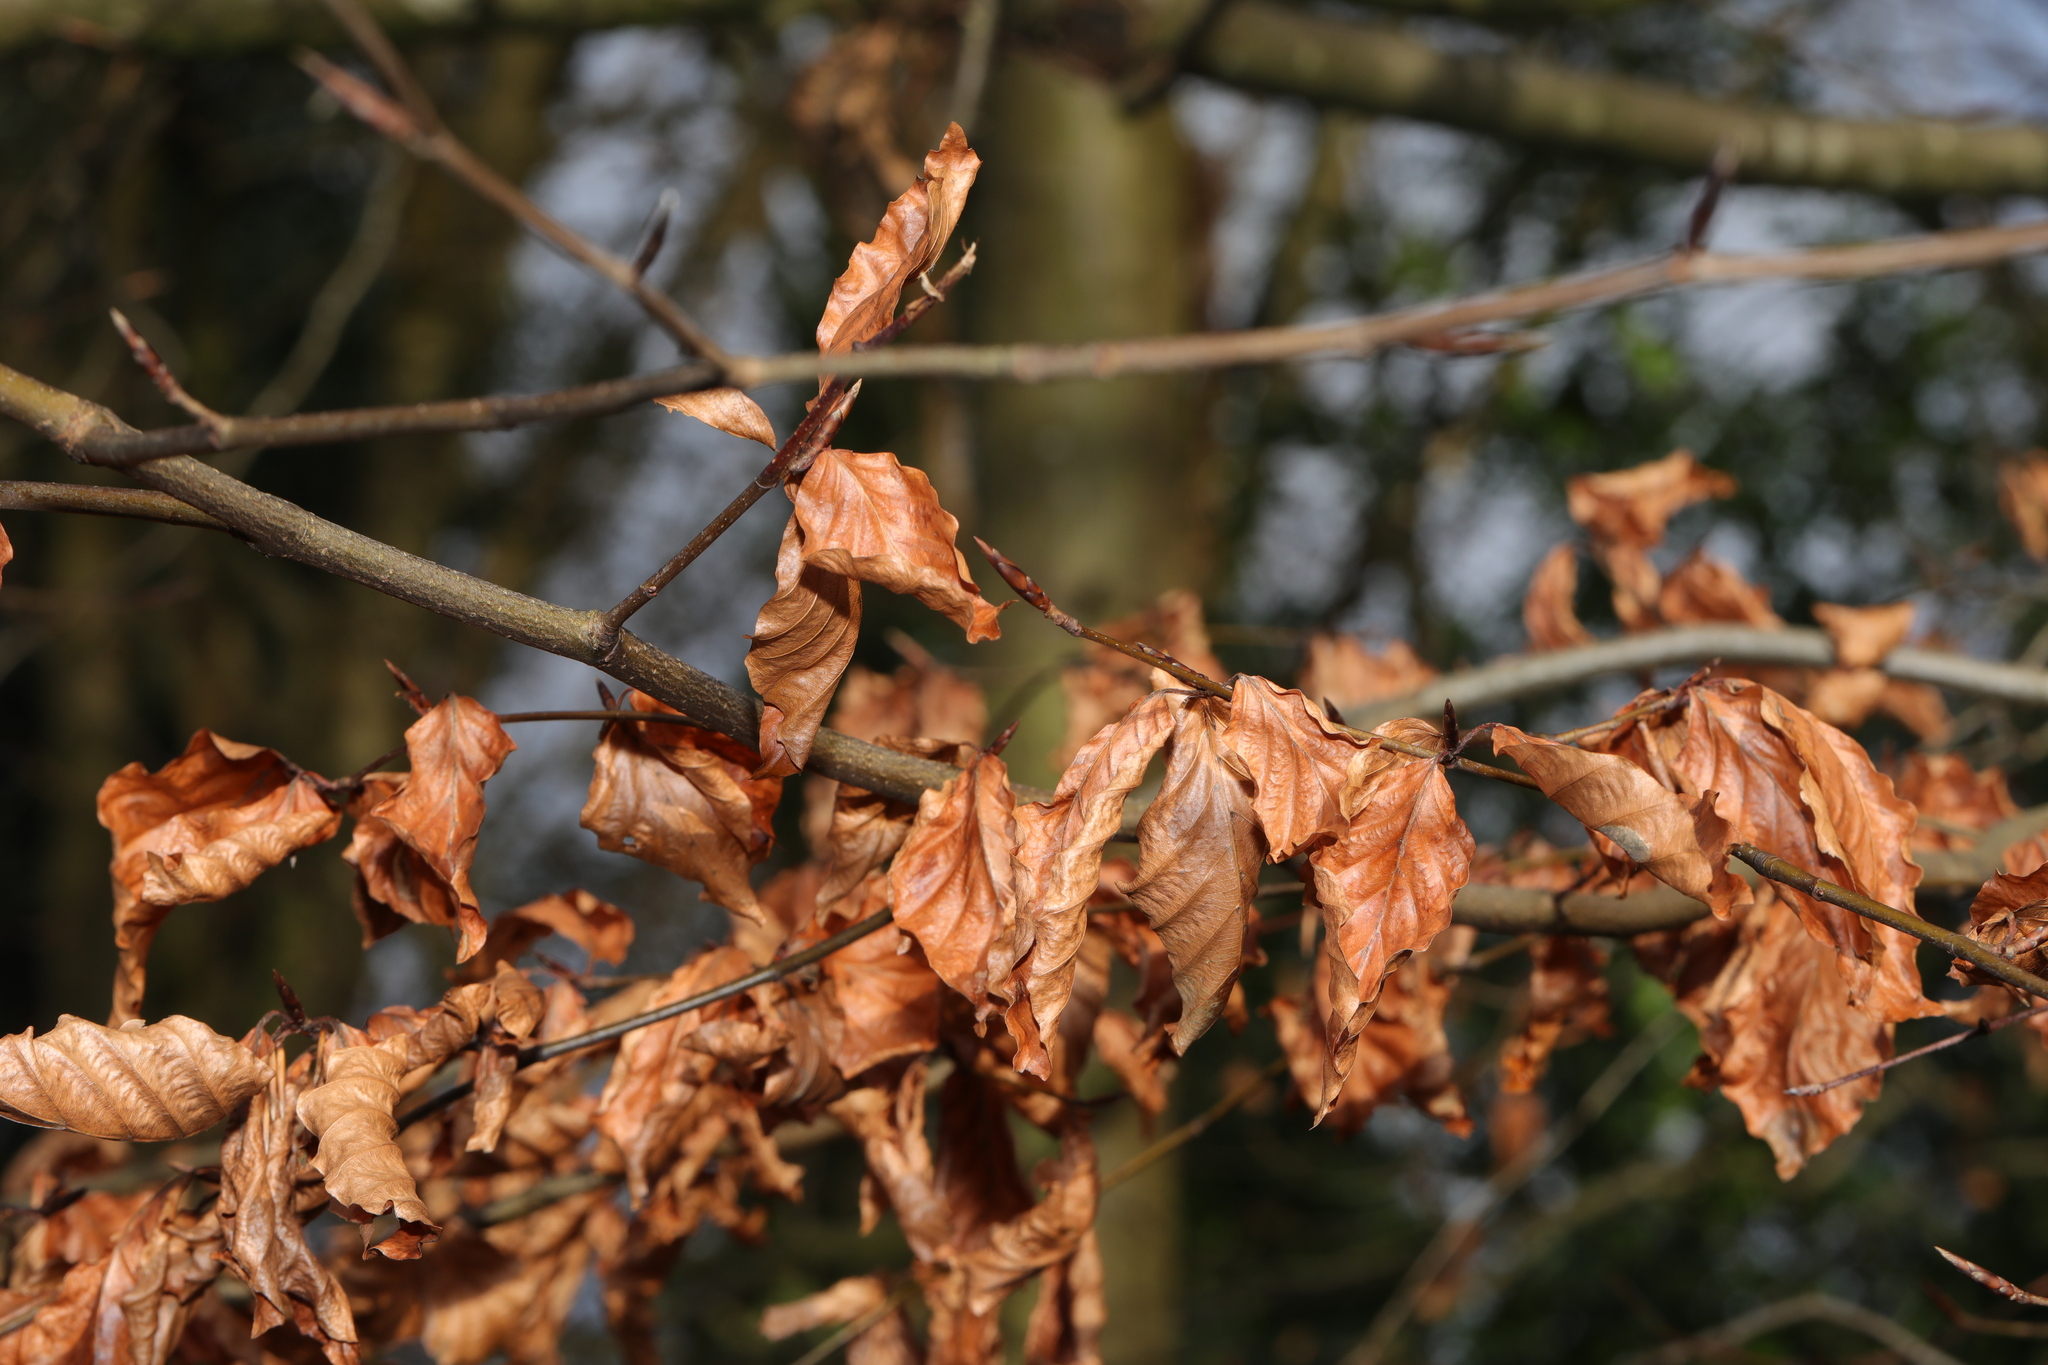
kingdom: Plantae
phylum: Tracheophyta
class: Magnoliopsida
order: Fagales
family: Fagaceae
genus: Fagus
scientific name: Fagus sylvatica
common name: Beech
